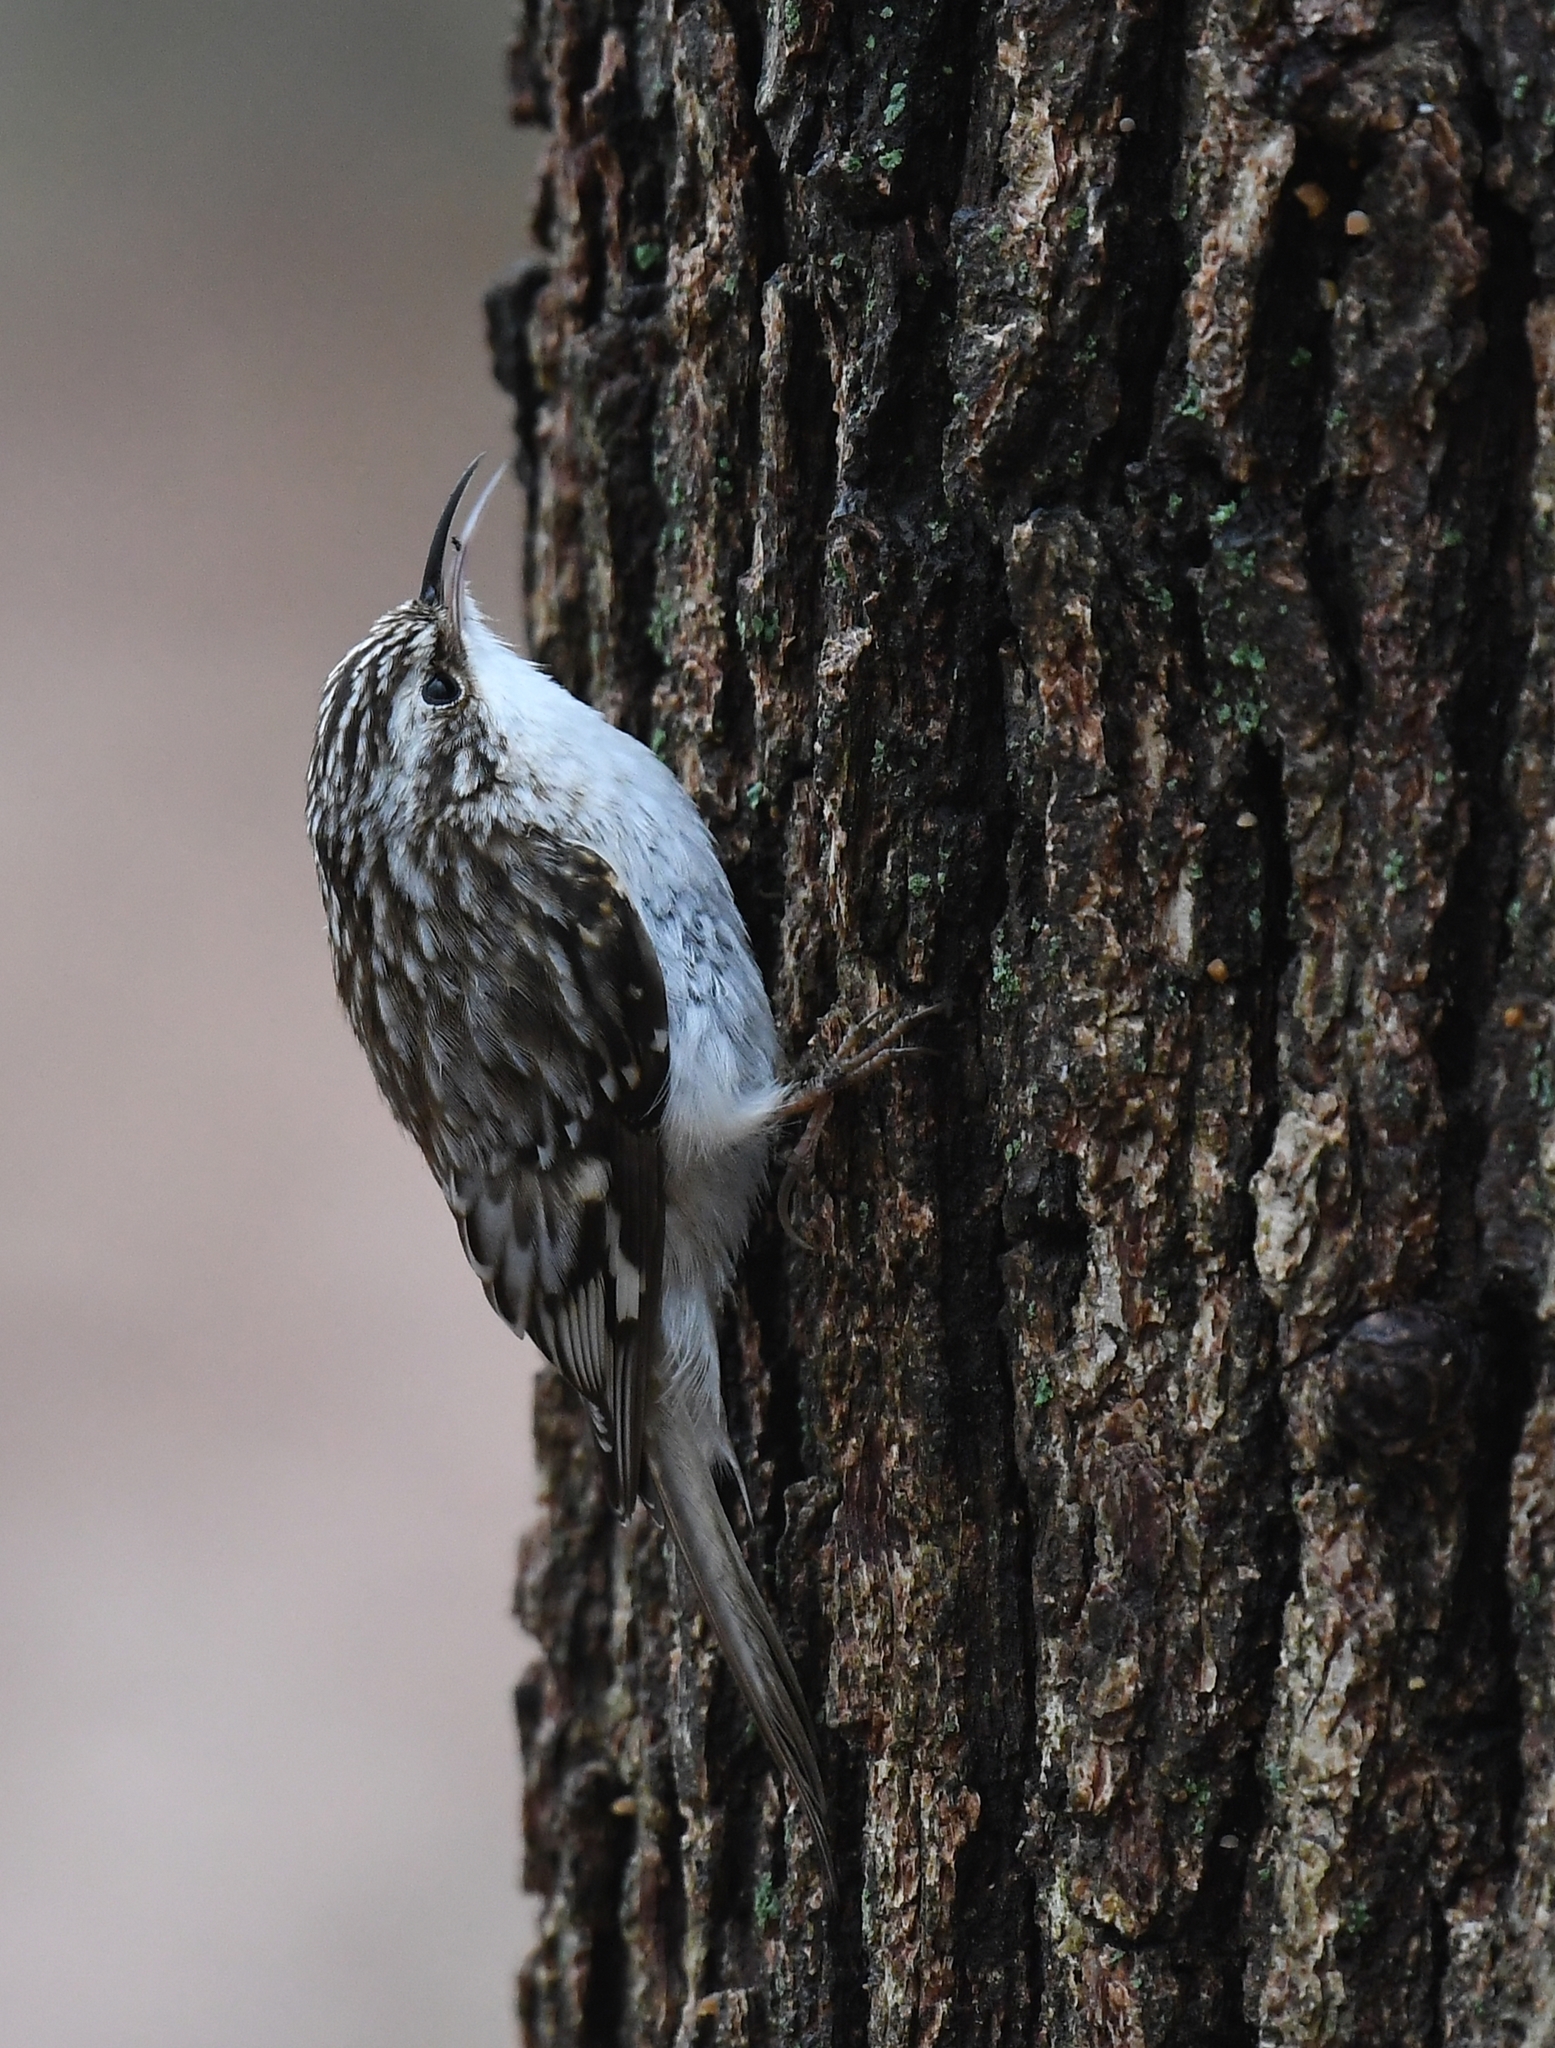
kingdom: Animalia
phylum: Chordata
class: Aves
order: Passeriformes
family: Certhiidae
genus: Certhia
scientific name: Certhia americana
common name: Brown creeper
